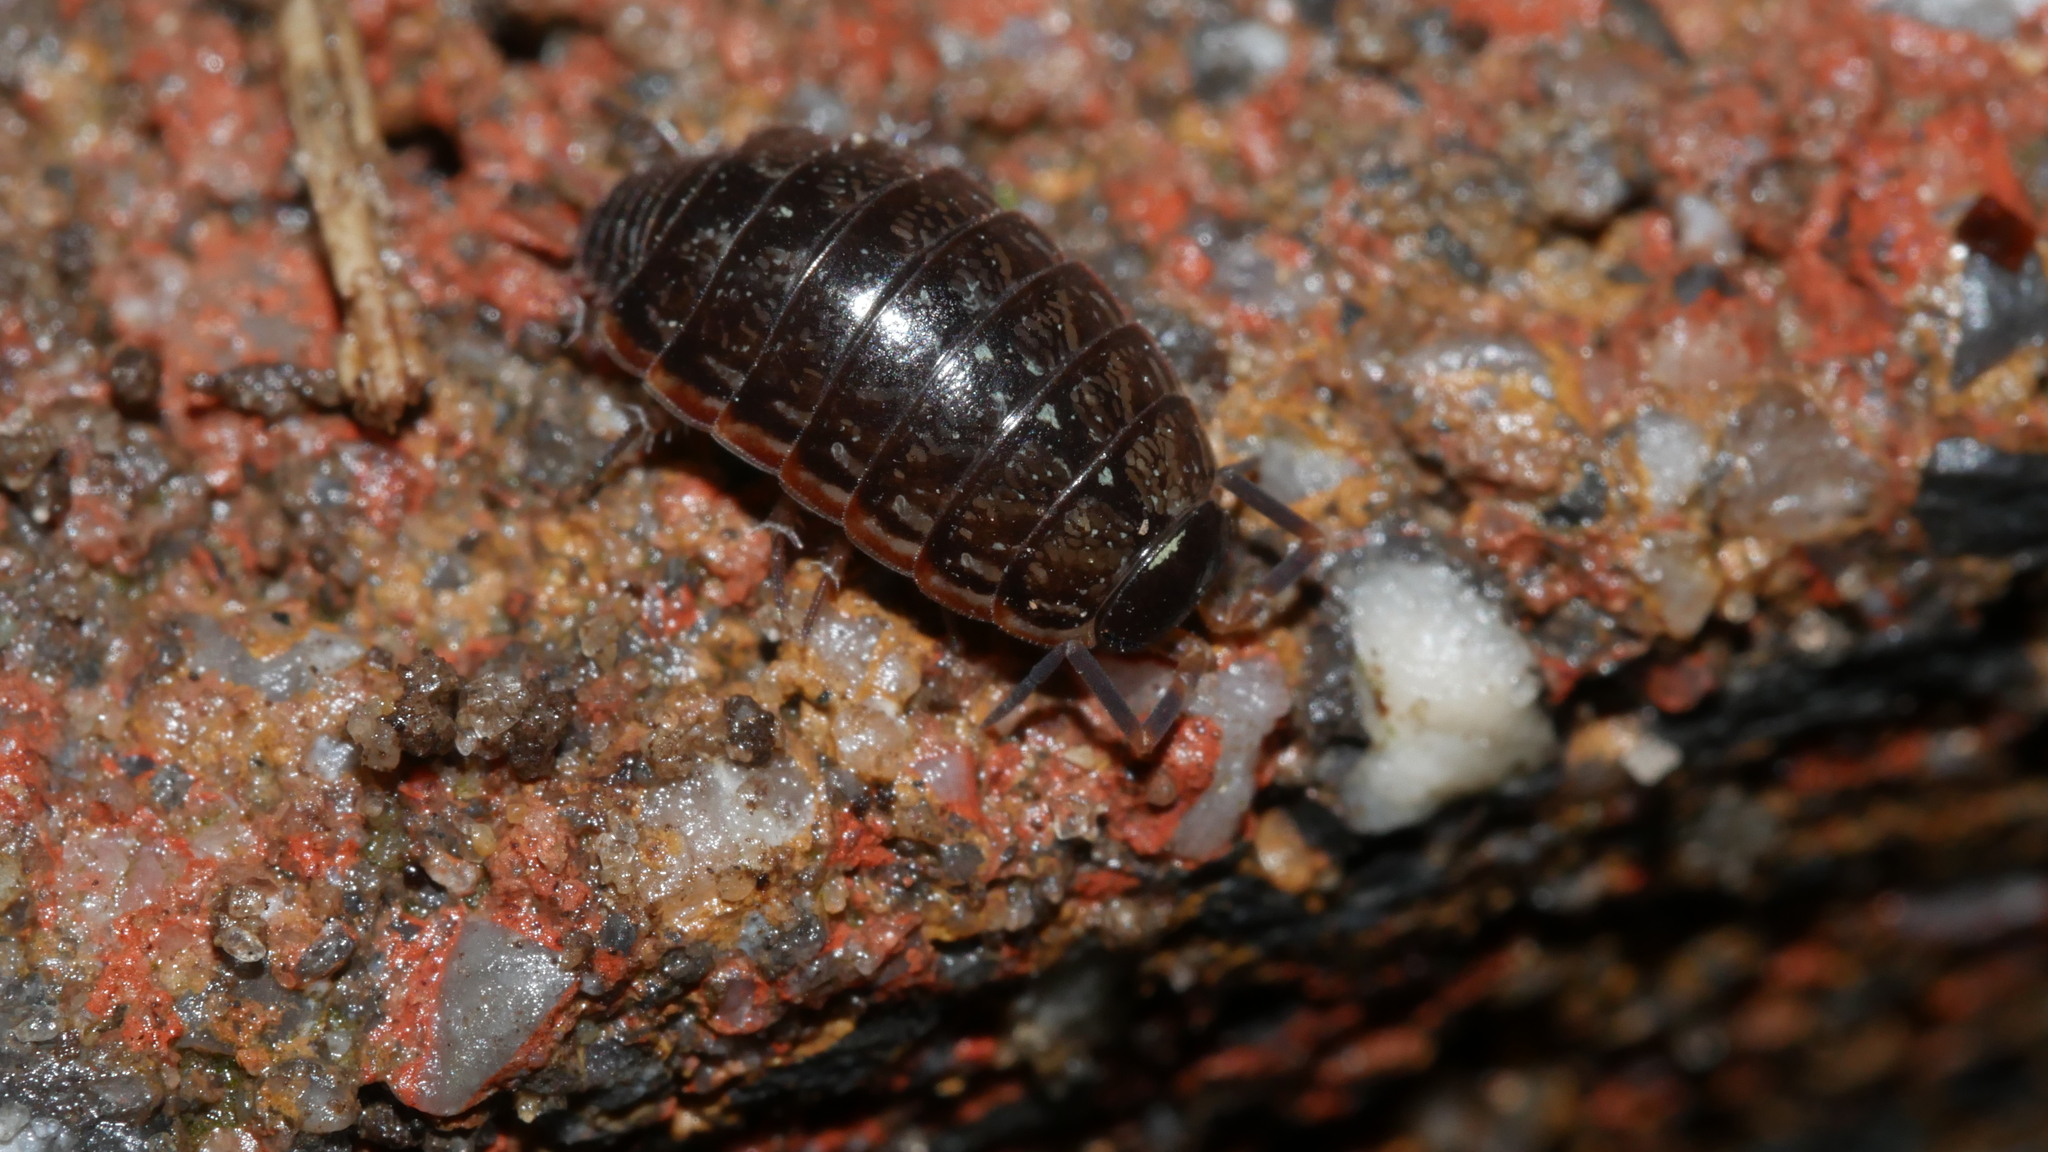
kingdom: Animalia
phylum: Arthropoda
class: Malacostraca
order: Isopoda
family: Philosciidae
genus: Philoscia
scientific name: Philoscia muscorum
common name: Common striped woodlouse
